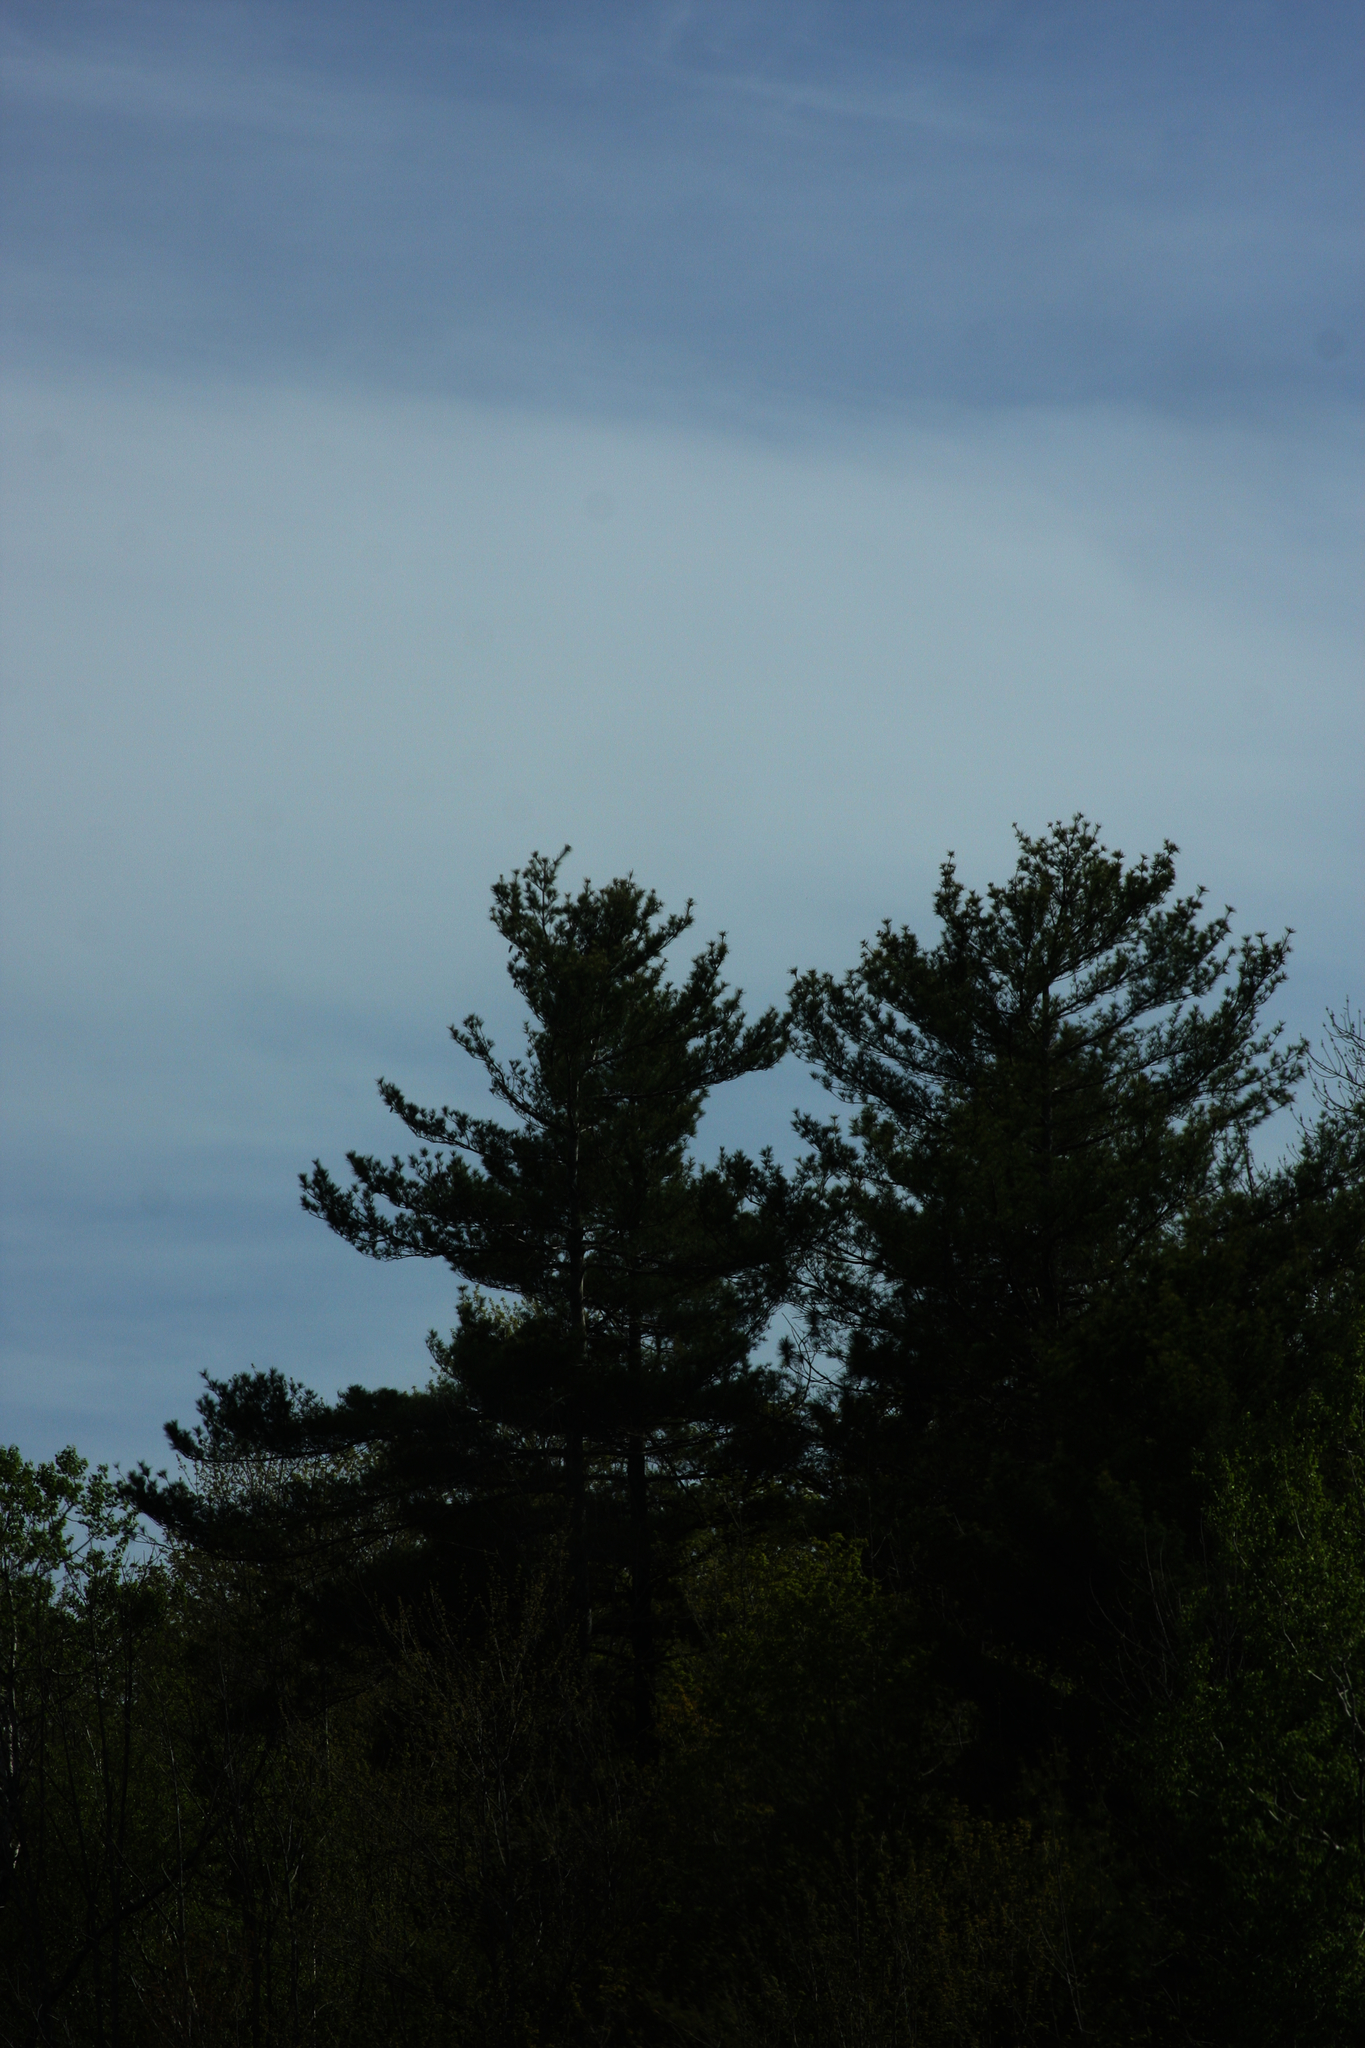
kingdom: Plantae
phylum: Tracheophyta
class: Pinopsida
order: Pinales
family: Pinaceae
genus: Pinus
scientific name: Pinus strobus
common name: Weymouth pine
